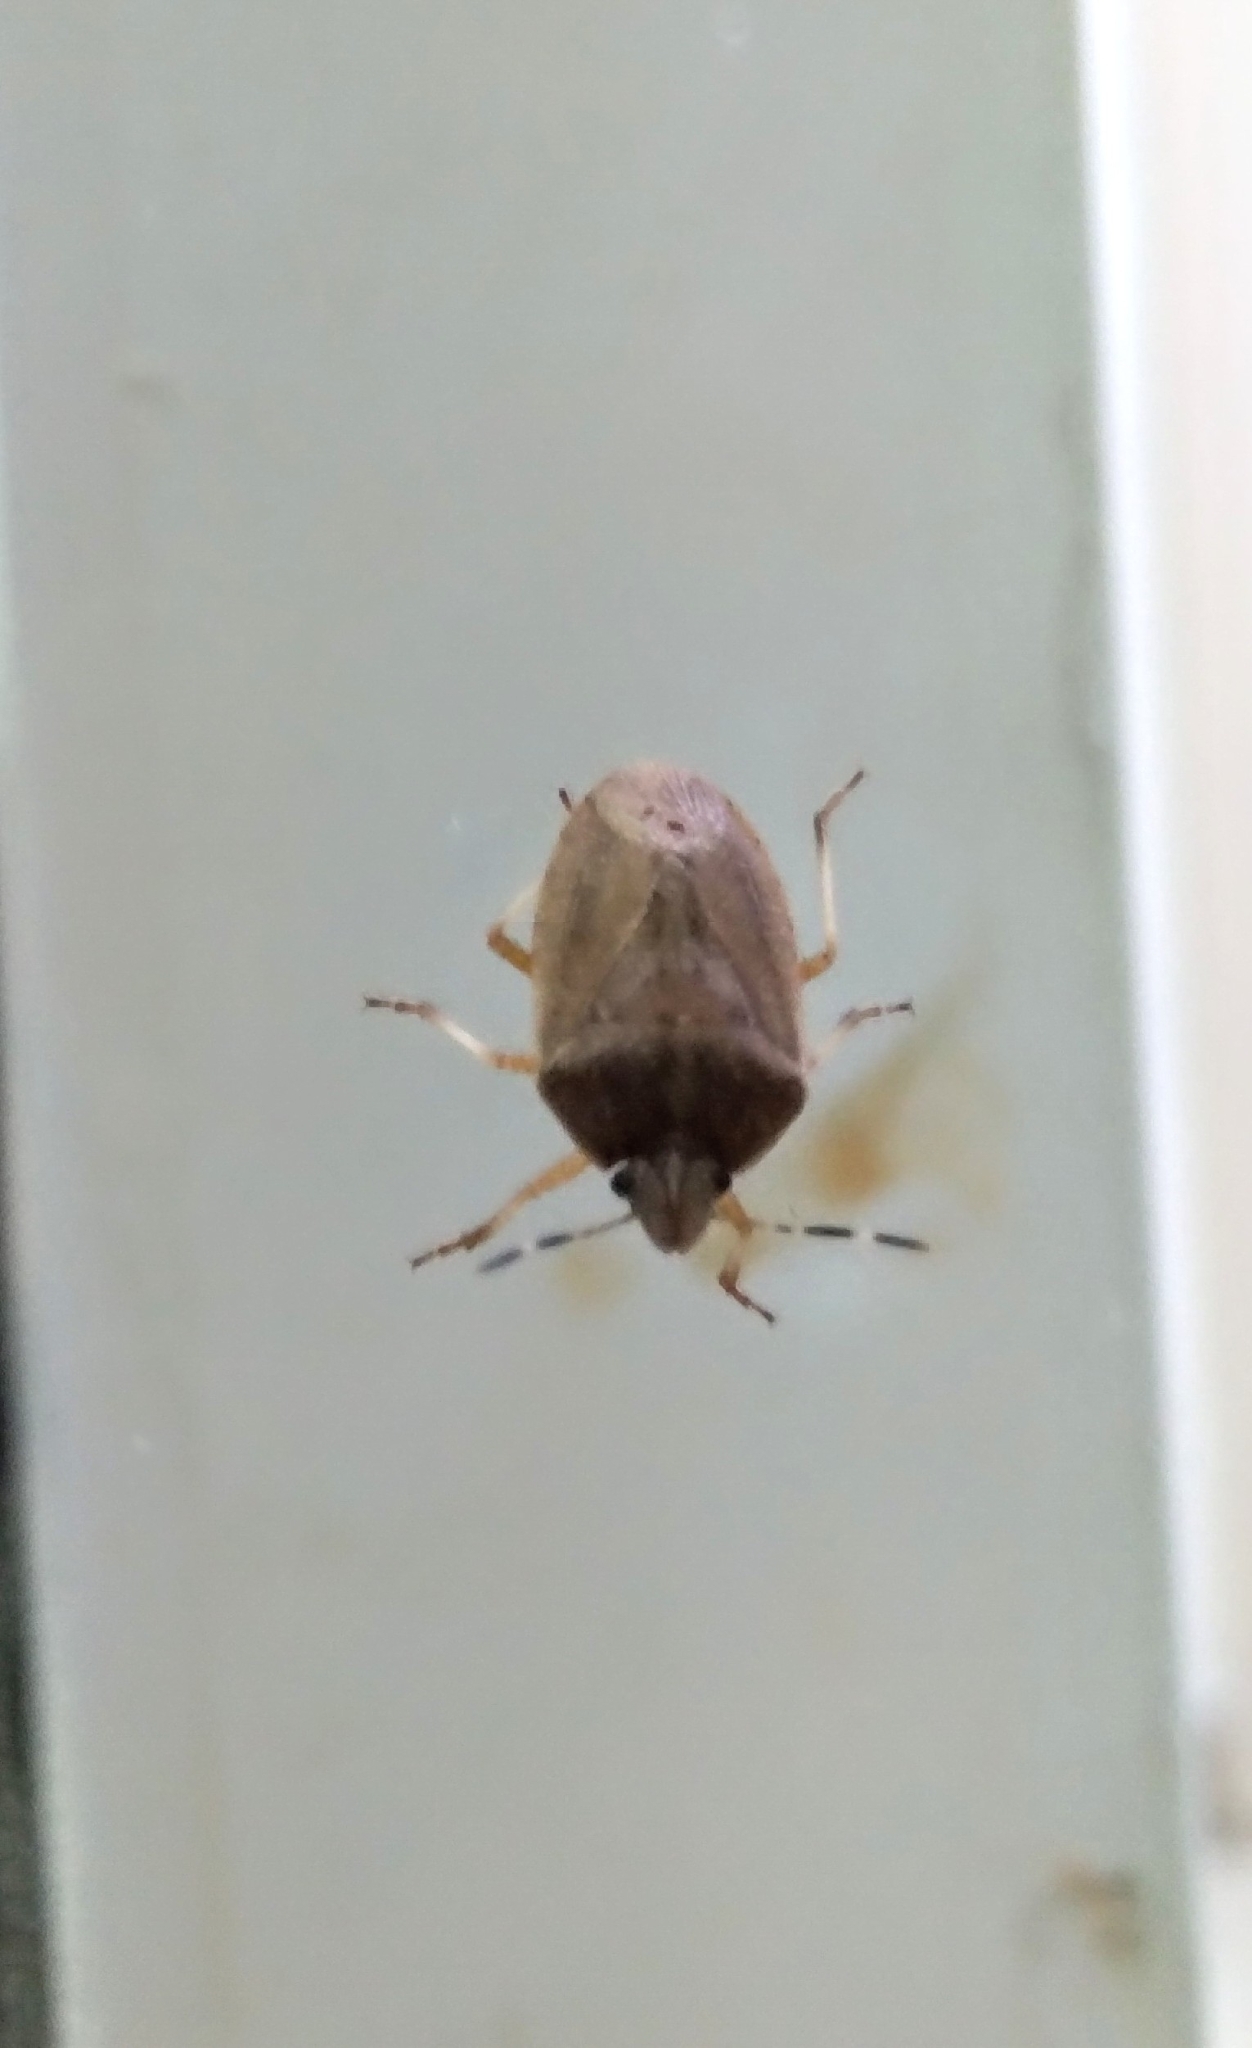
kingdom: Animalia
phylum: Arthropoda
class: Insecta
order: Hemiptera
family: Pentatomidae
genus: Laprius
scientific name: Laprius
